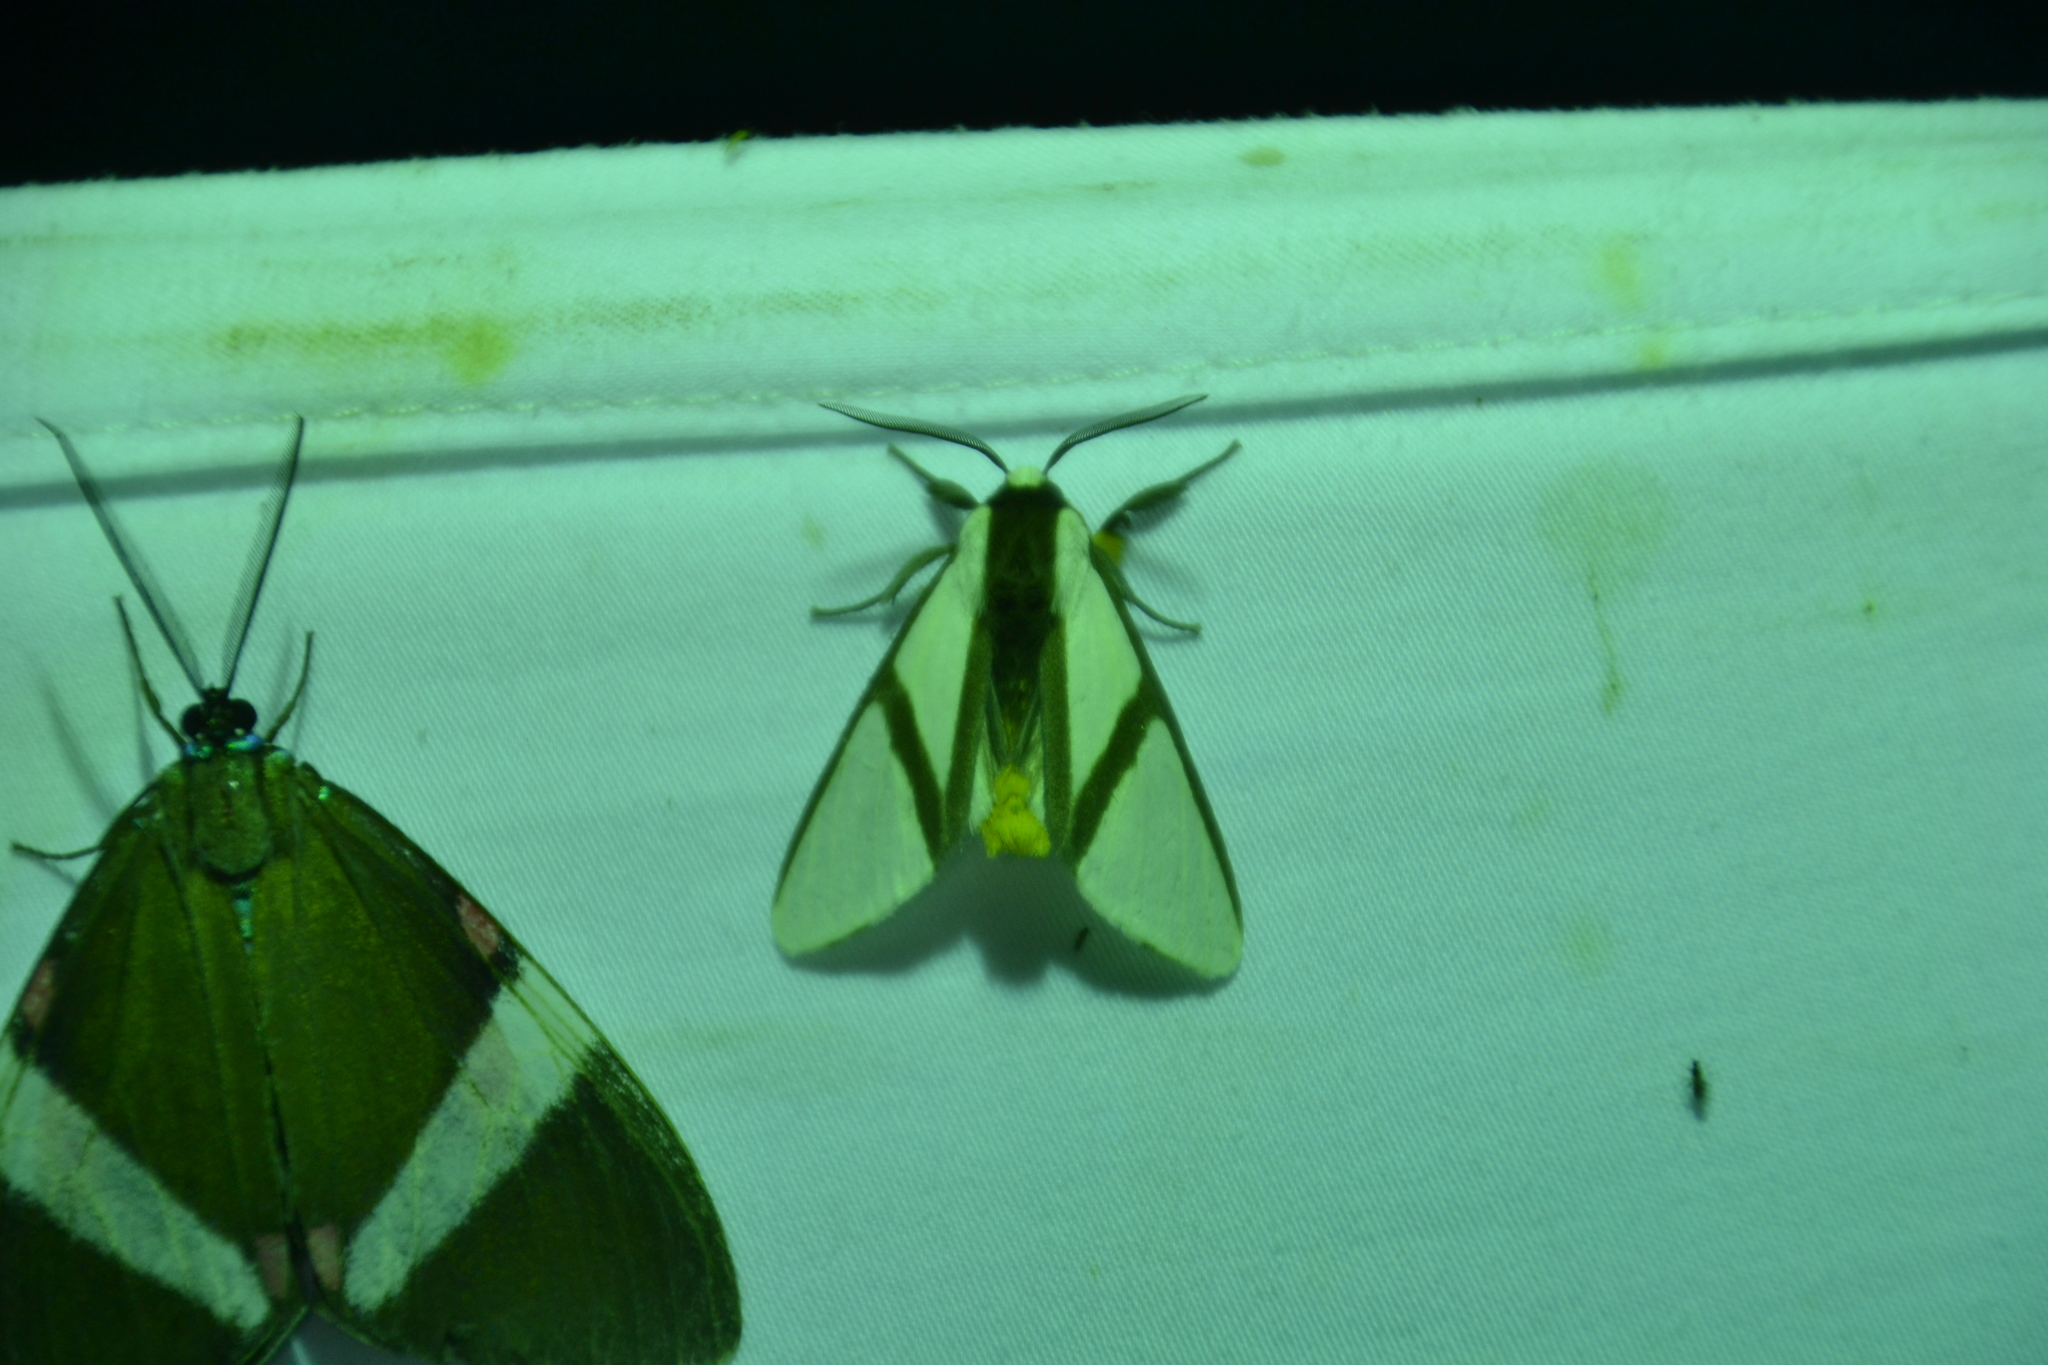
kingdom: Animalia
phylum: Arthropoda
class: Insecta
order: Lepidoptera
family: Erebidae
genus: Turuptiana
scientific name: Turuptiana obliqua
